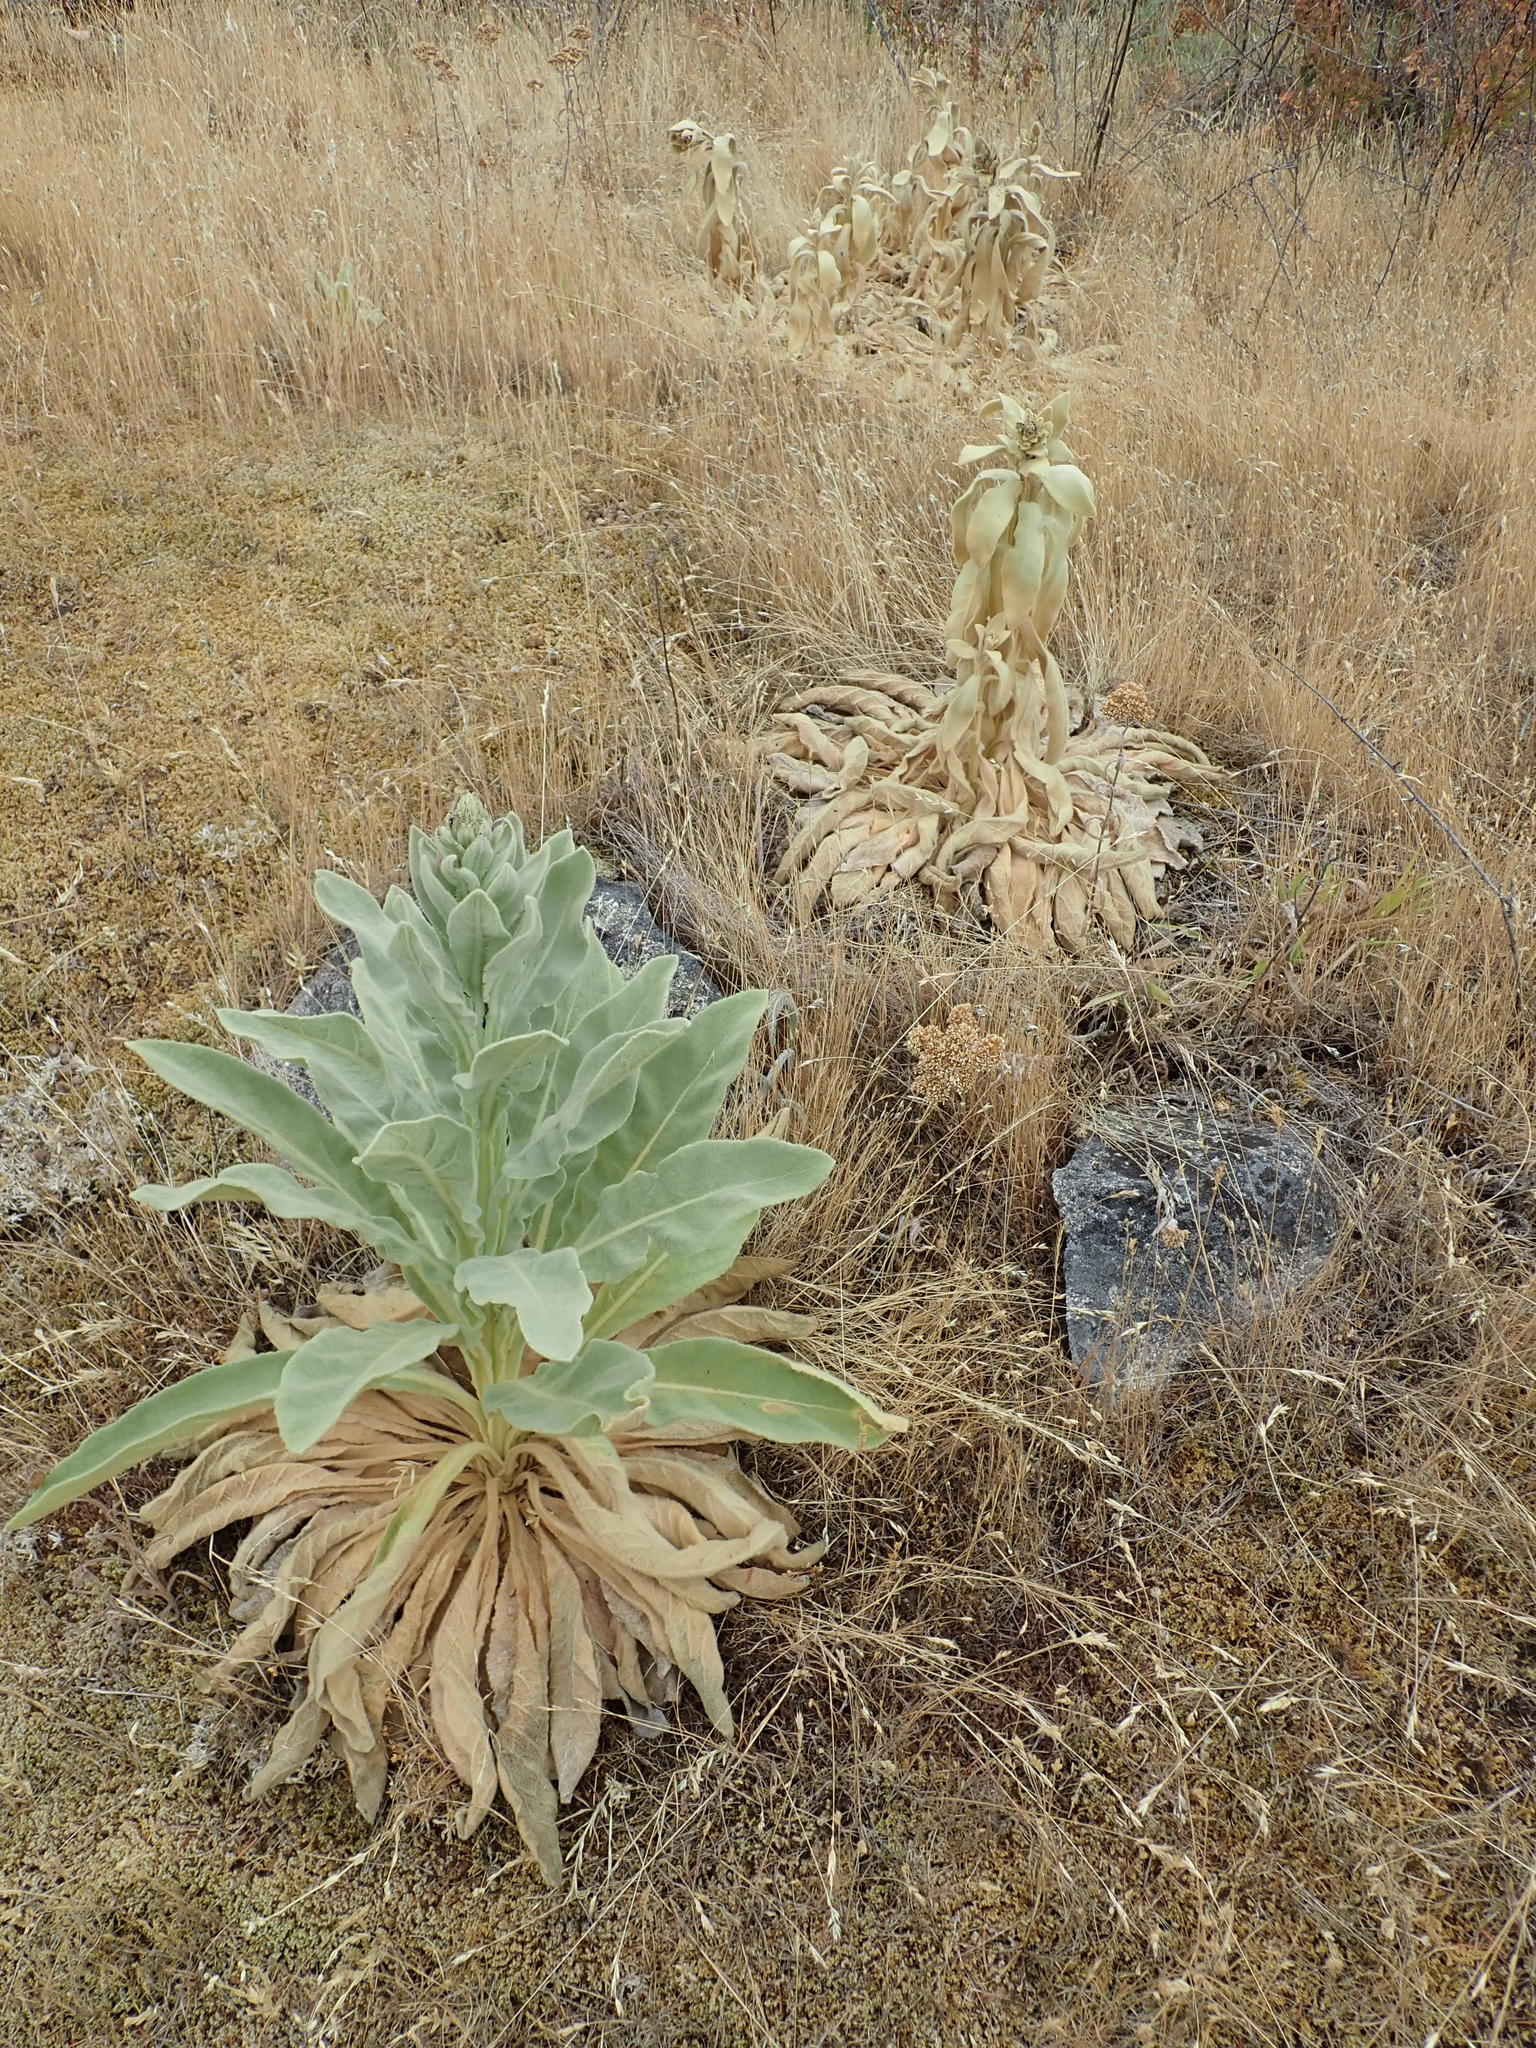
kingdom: Plantae
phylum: Tracheophyta
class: Magnoliopsida
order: Lamiales
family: Scrophulariaceae
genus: Verbascum
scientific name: Verbascum thapsus
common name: Common mullein
